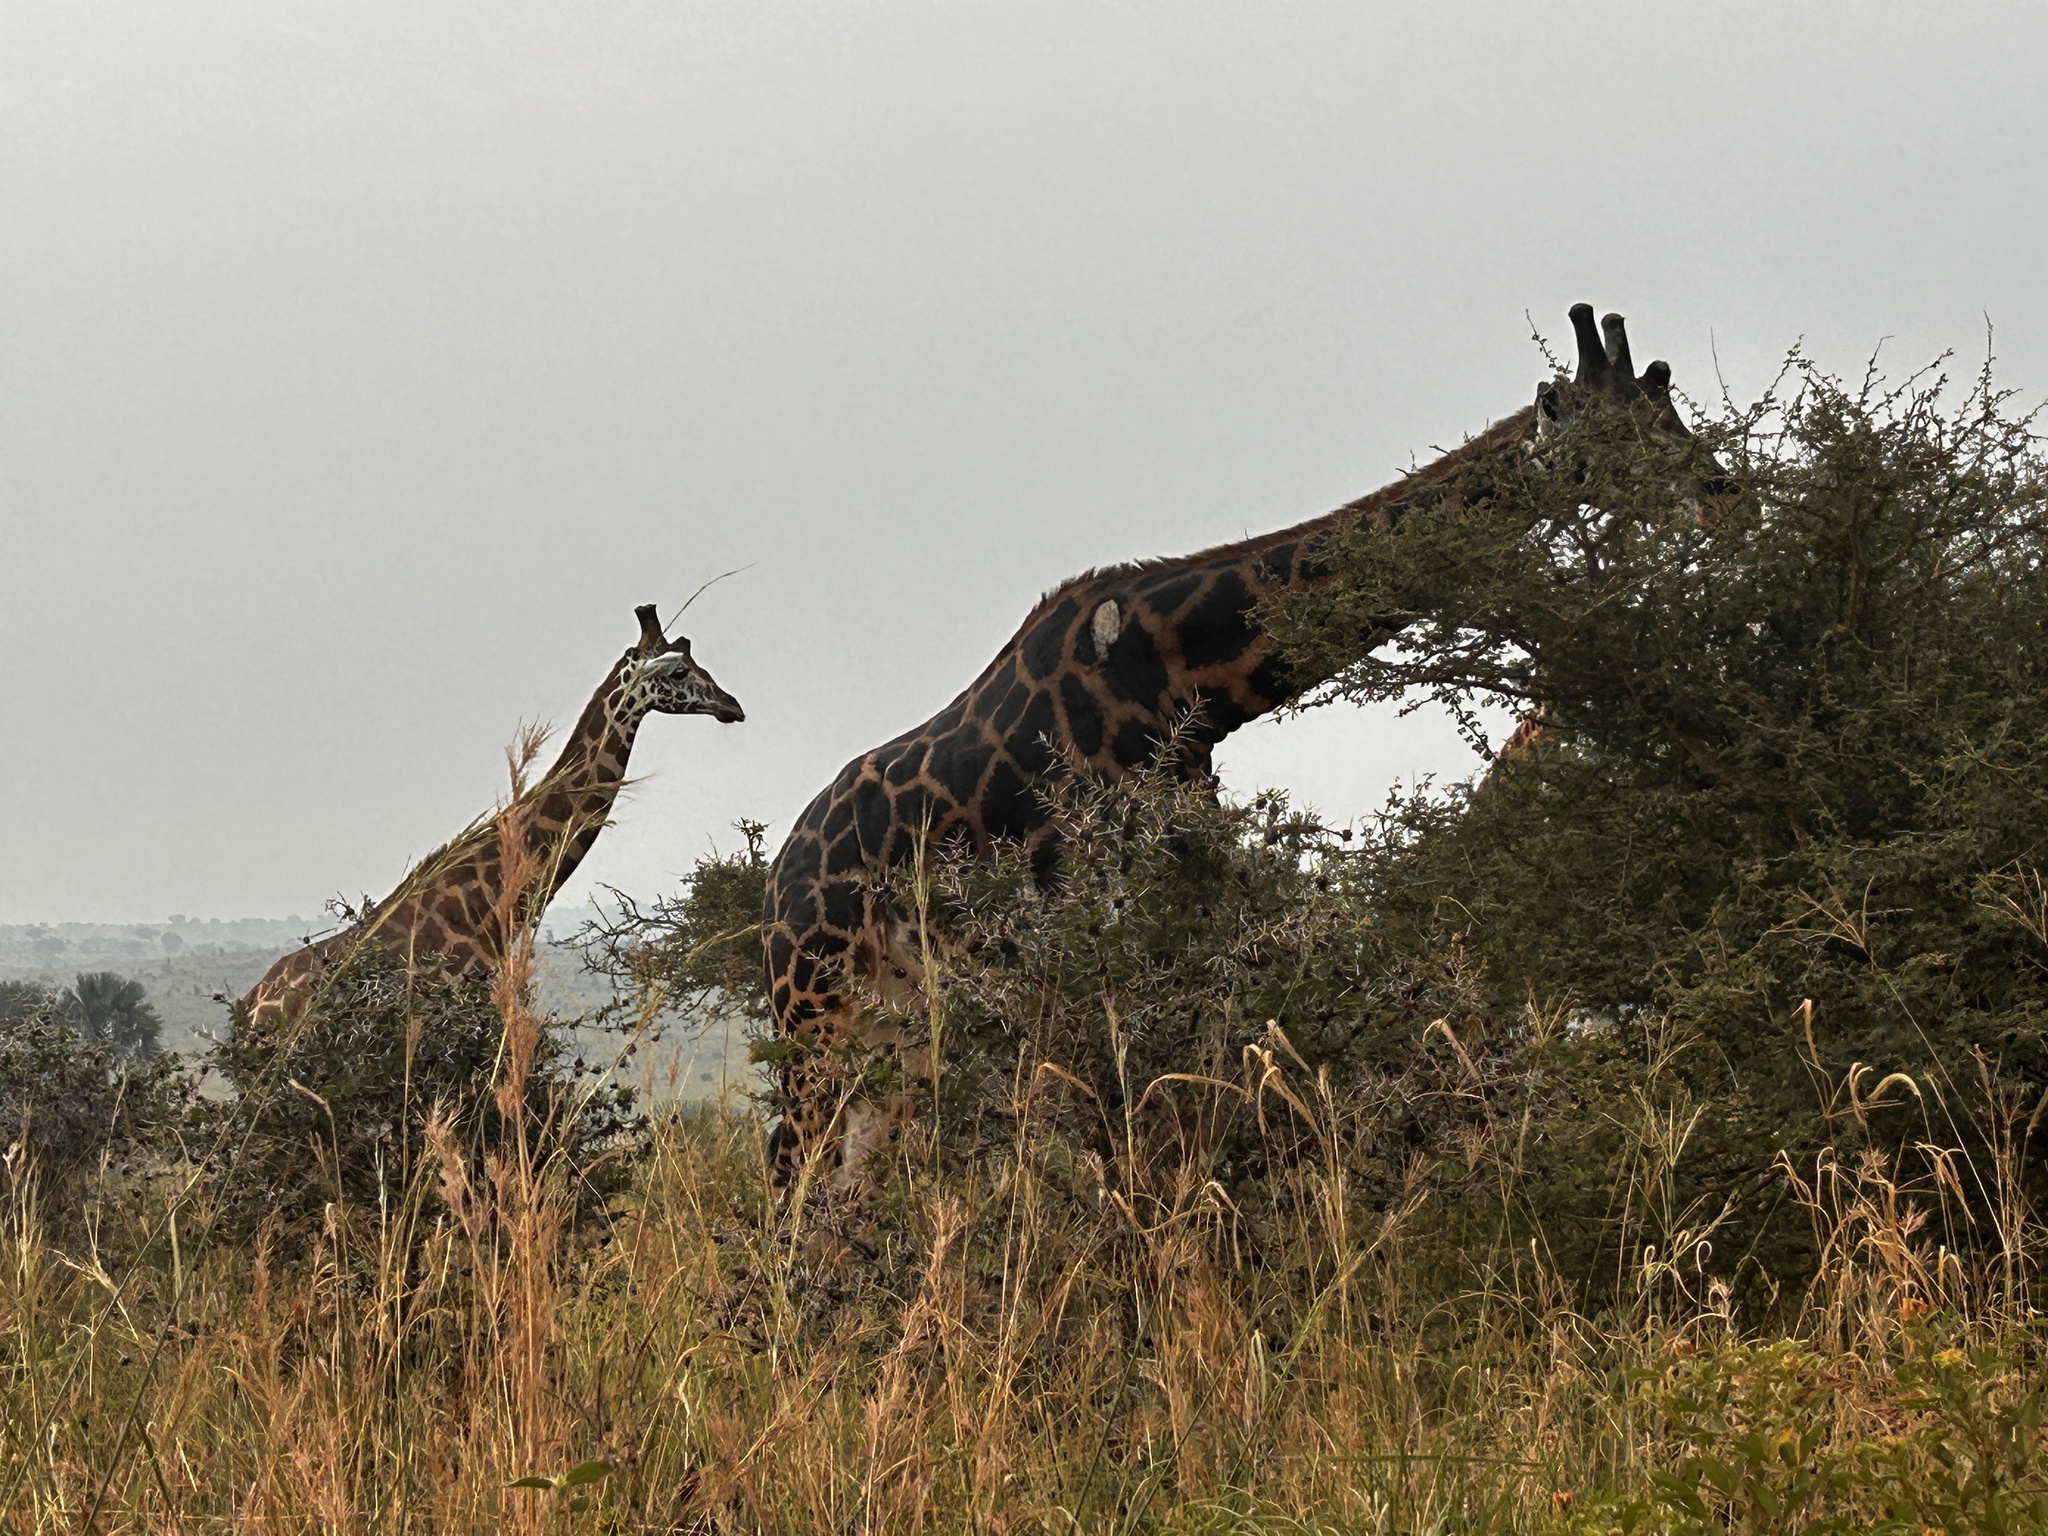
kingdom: Animalia
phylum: Chordata
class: Mammalia
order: Artiodactyla
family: Giraffidae
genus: Giraffa
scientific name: Giraffa camelopardalis
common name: Giraffe
